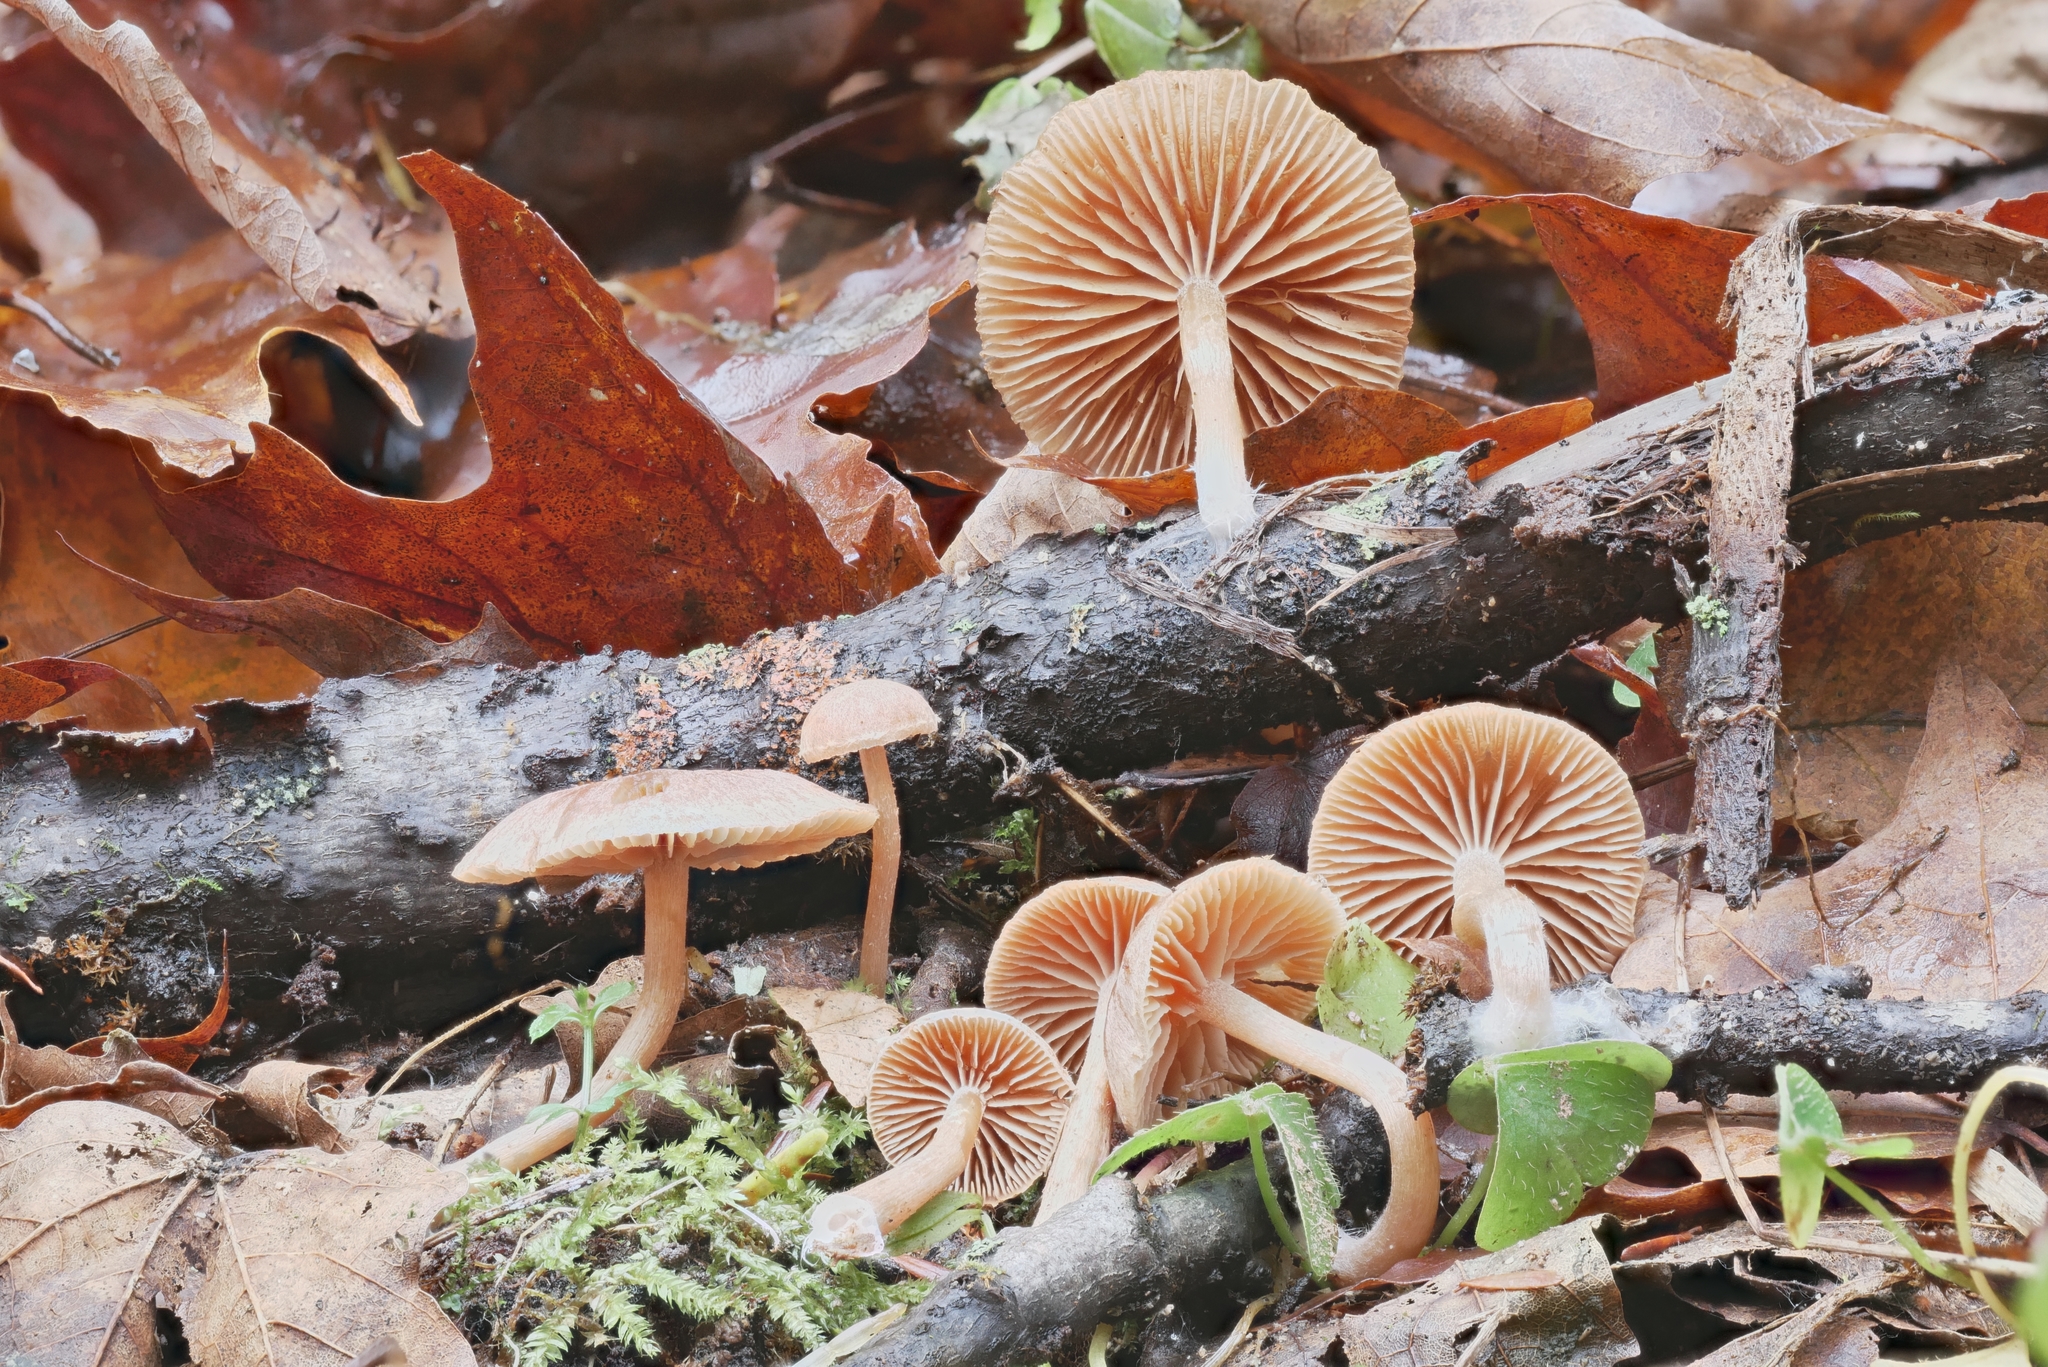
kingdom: Fungi
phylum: Basidiomycota
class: Agaricomycetes
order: Agaricales
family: Tubariaceae
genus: Tubaria
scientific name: Tubaria furfuracea
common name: Scurfy twiglet
